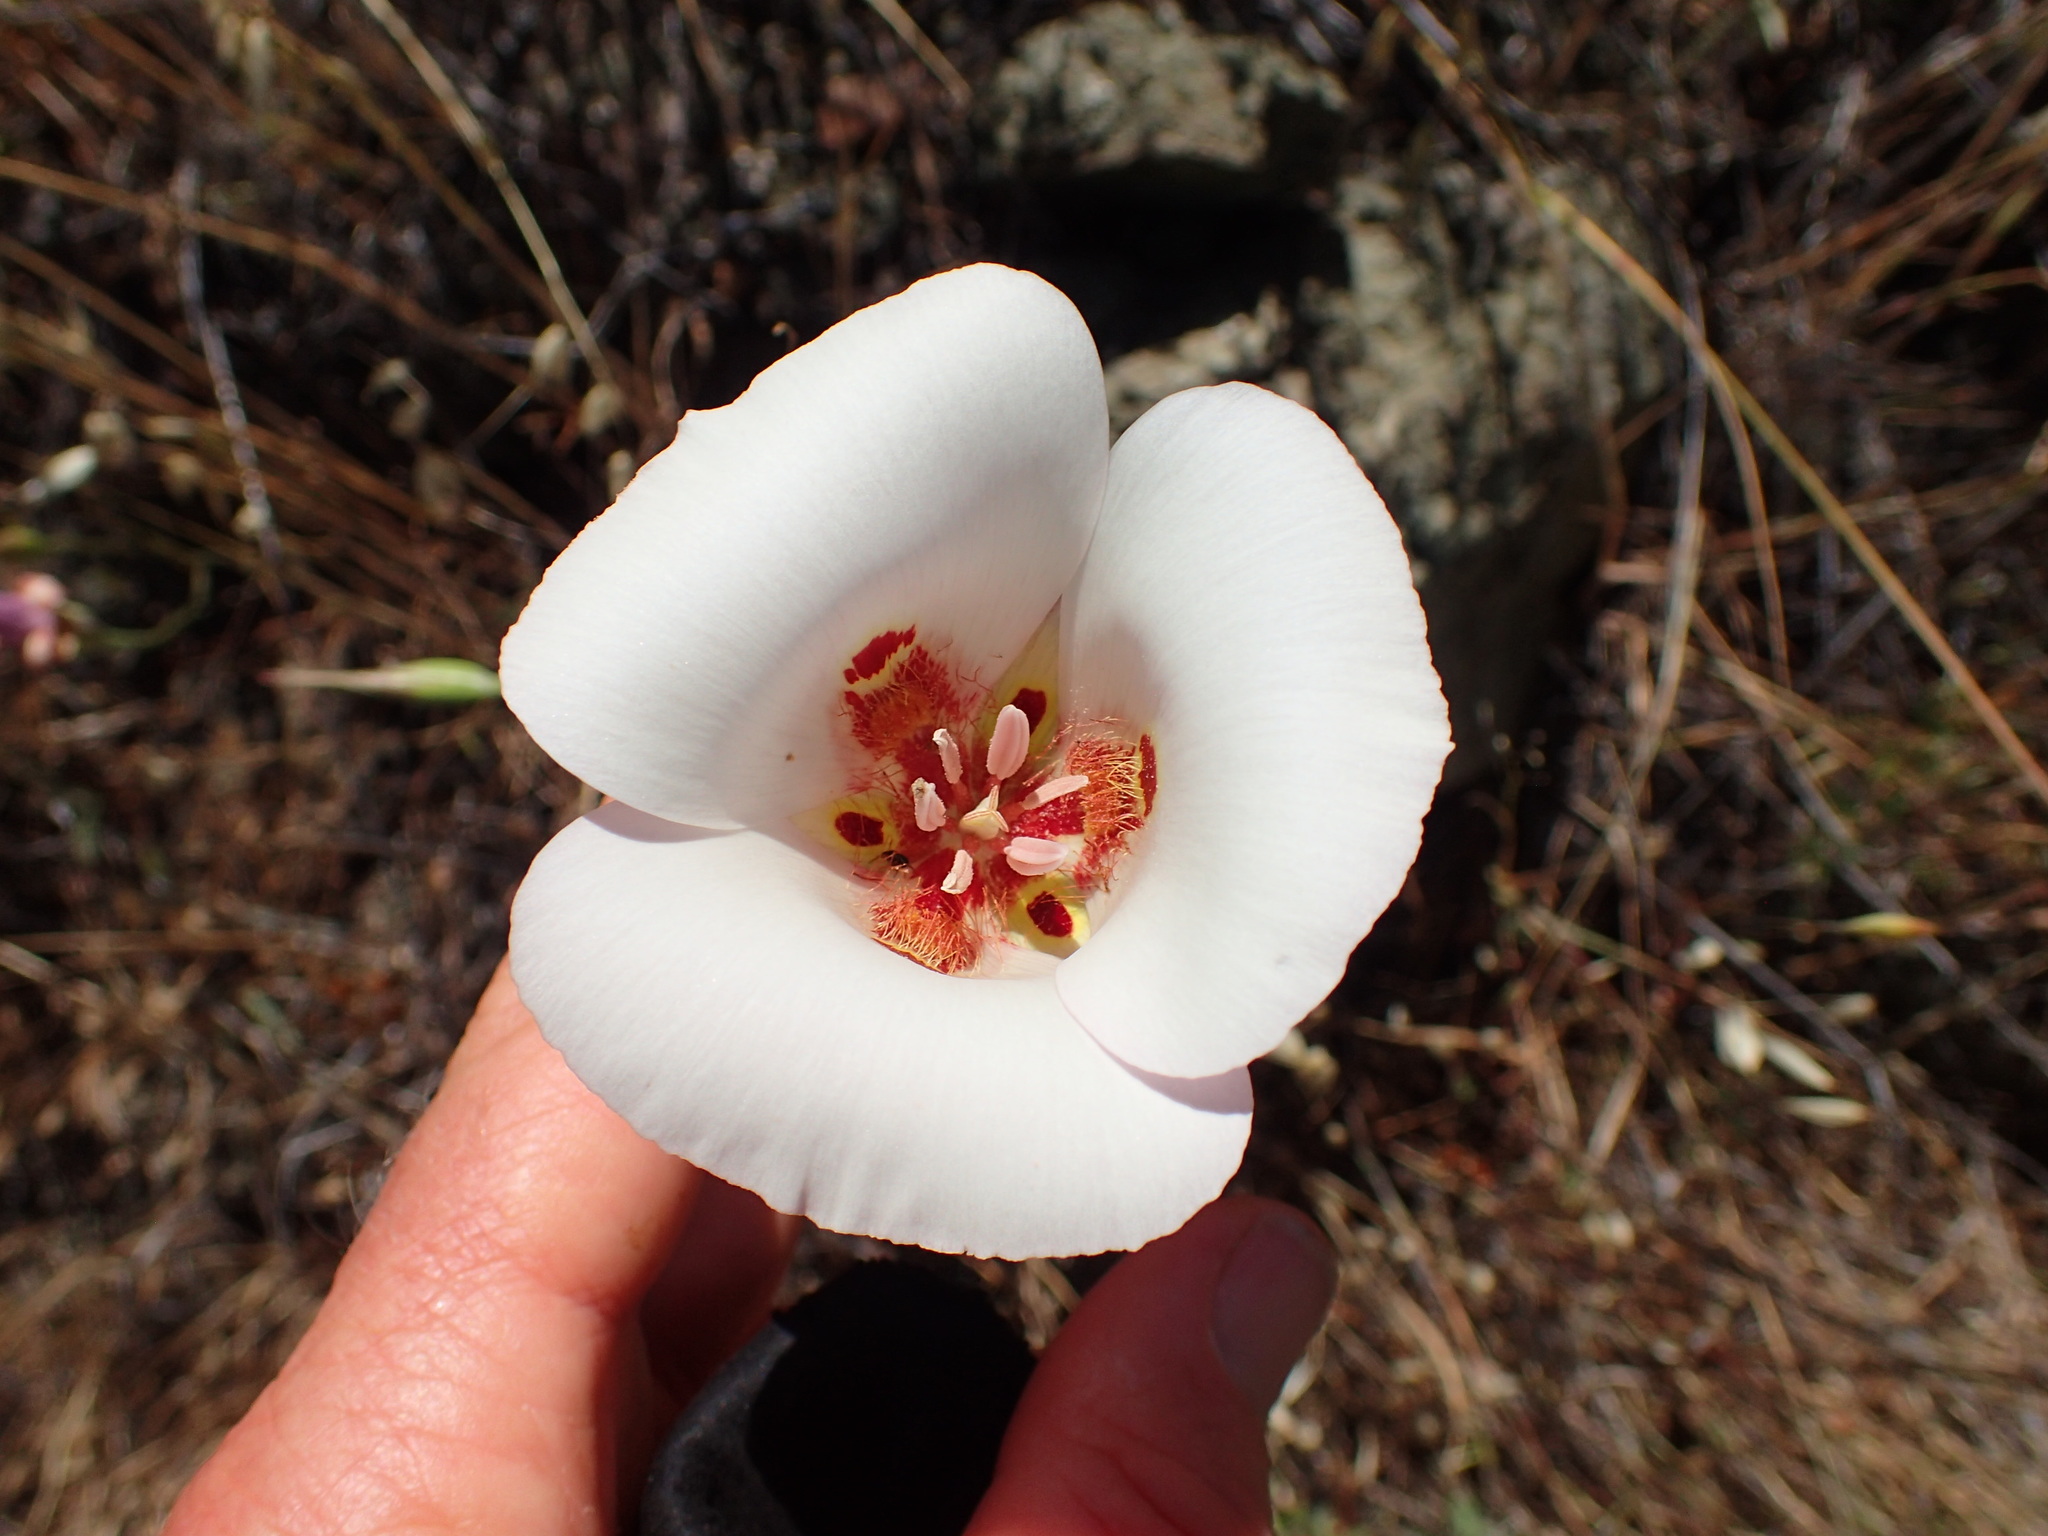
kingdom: Plantae
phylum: Tracheophyta
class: Liliopsida
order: Liliales
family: Liliaceae
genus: Calochortus
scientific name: Calochortus venustus
